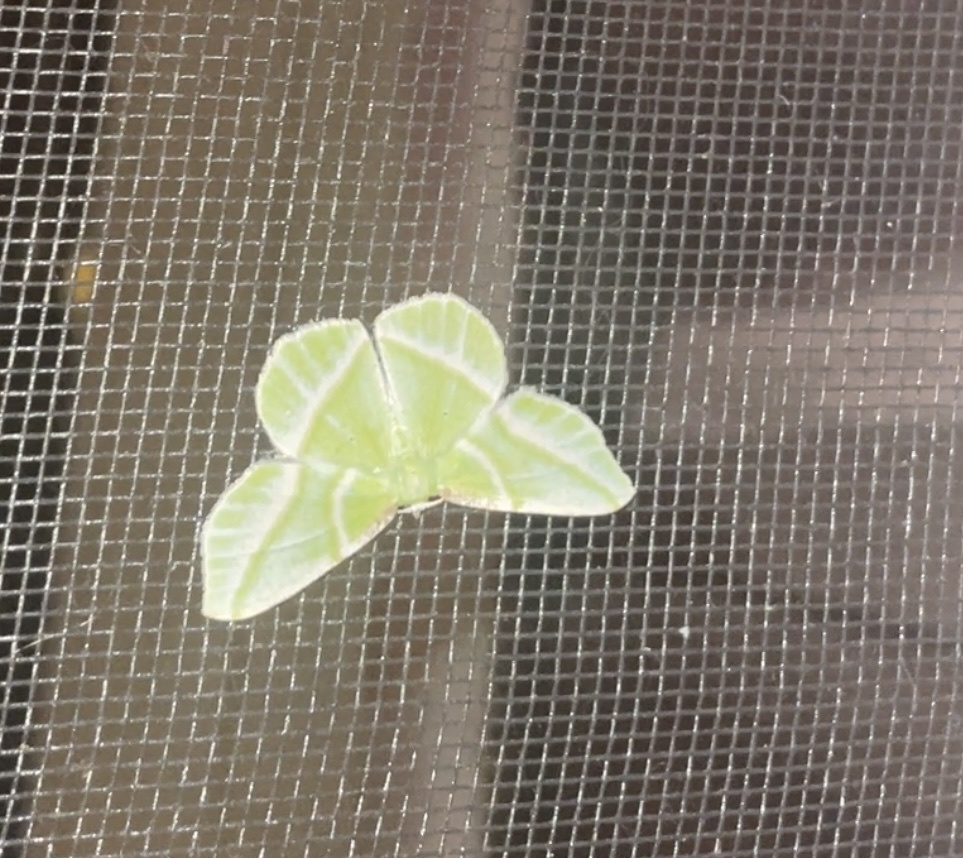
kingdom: Animalia
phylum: Arthropoda
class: Insecta
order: Lepidoptera
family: Geometridae
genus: Dichorda
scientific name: Dichorda iridaria
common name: Showy emerald
